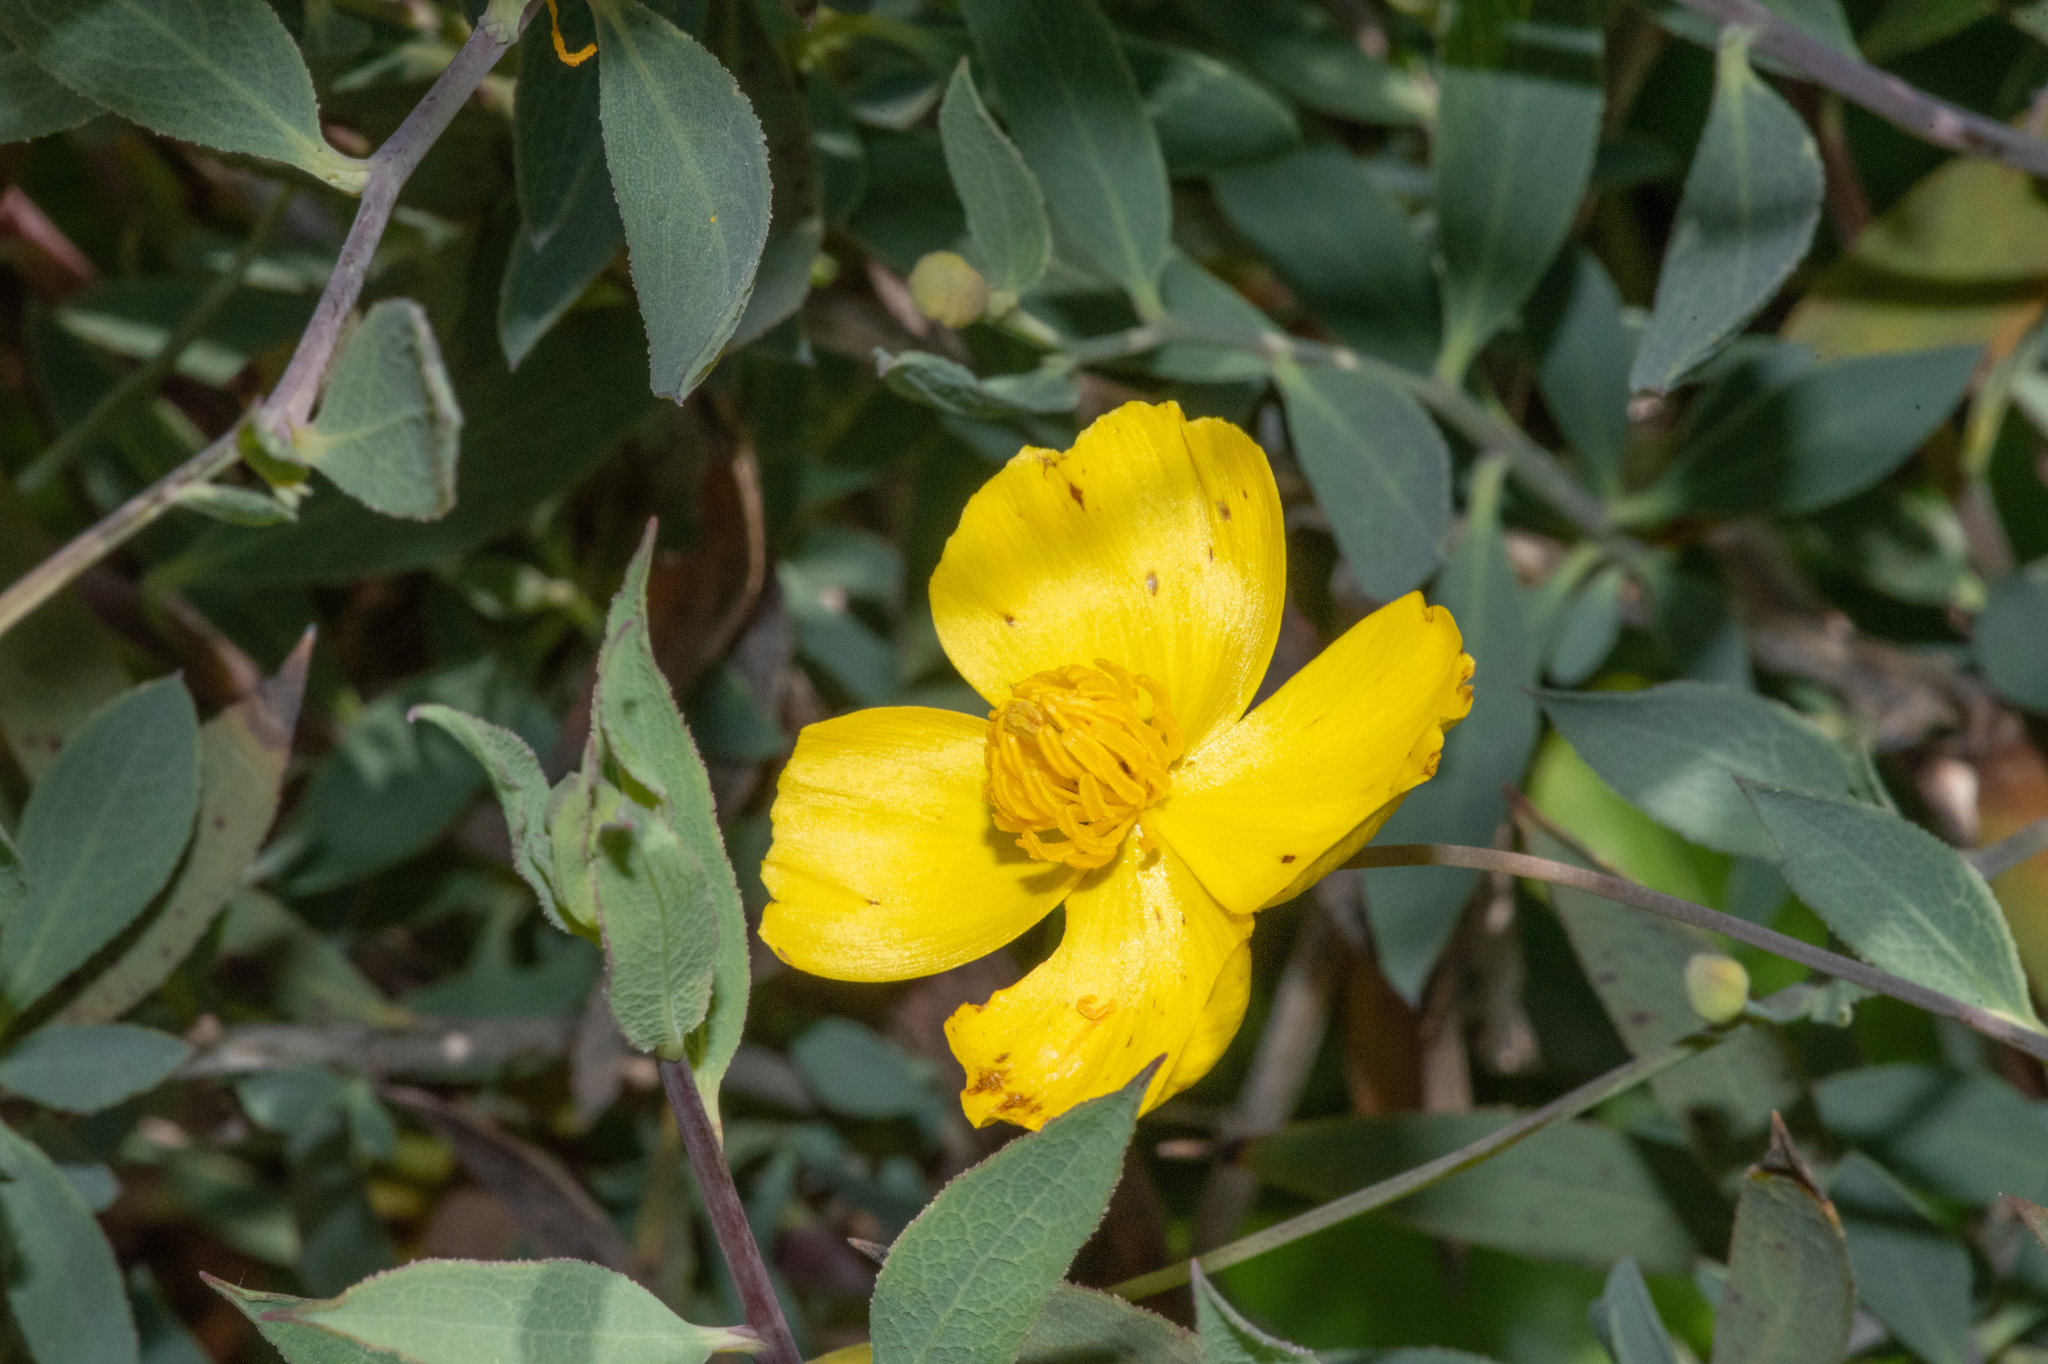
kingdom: Plantae
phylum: Tracheophyta
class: Magnoliopsida
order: Ranunculales
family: Papaveraceae
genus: Dendromecon
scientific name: Dendromecon rigida
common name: Tree poppy
